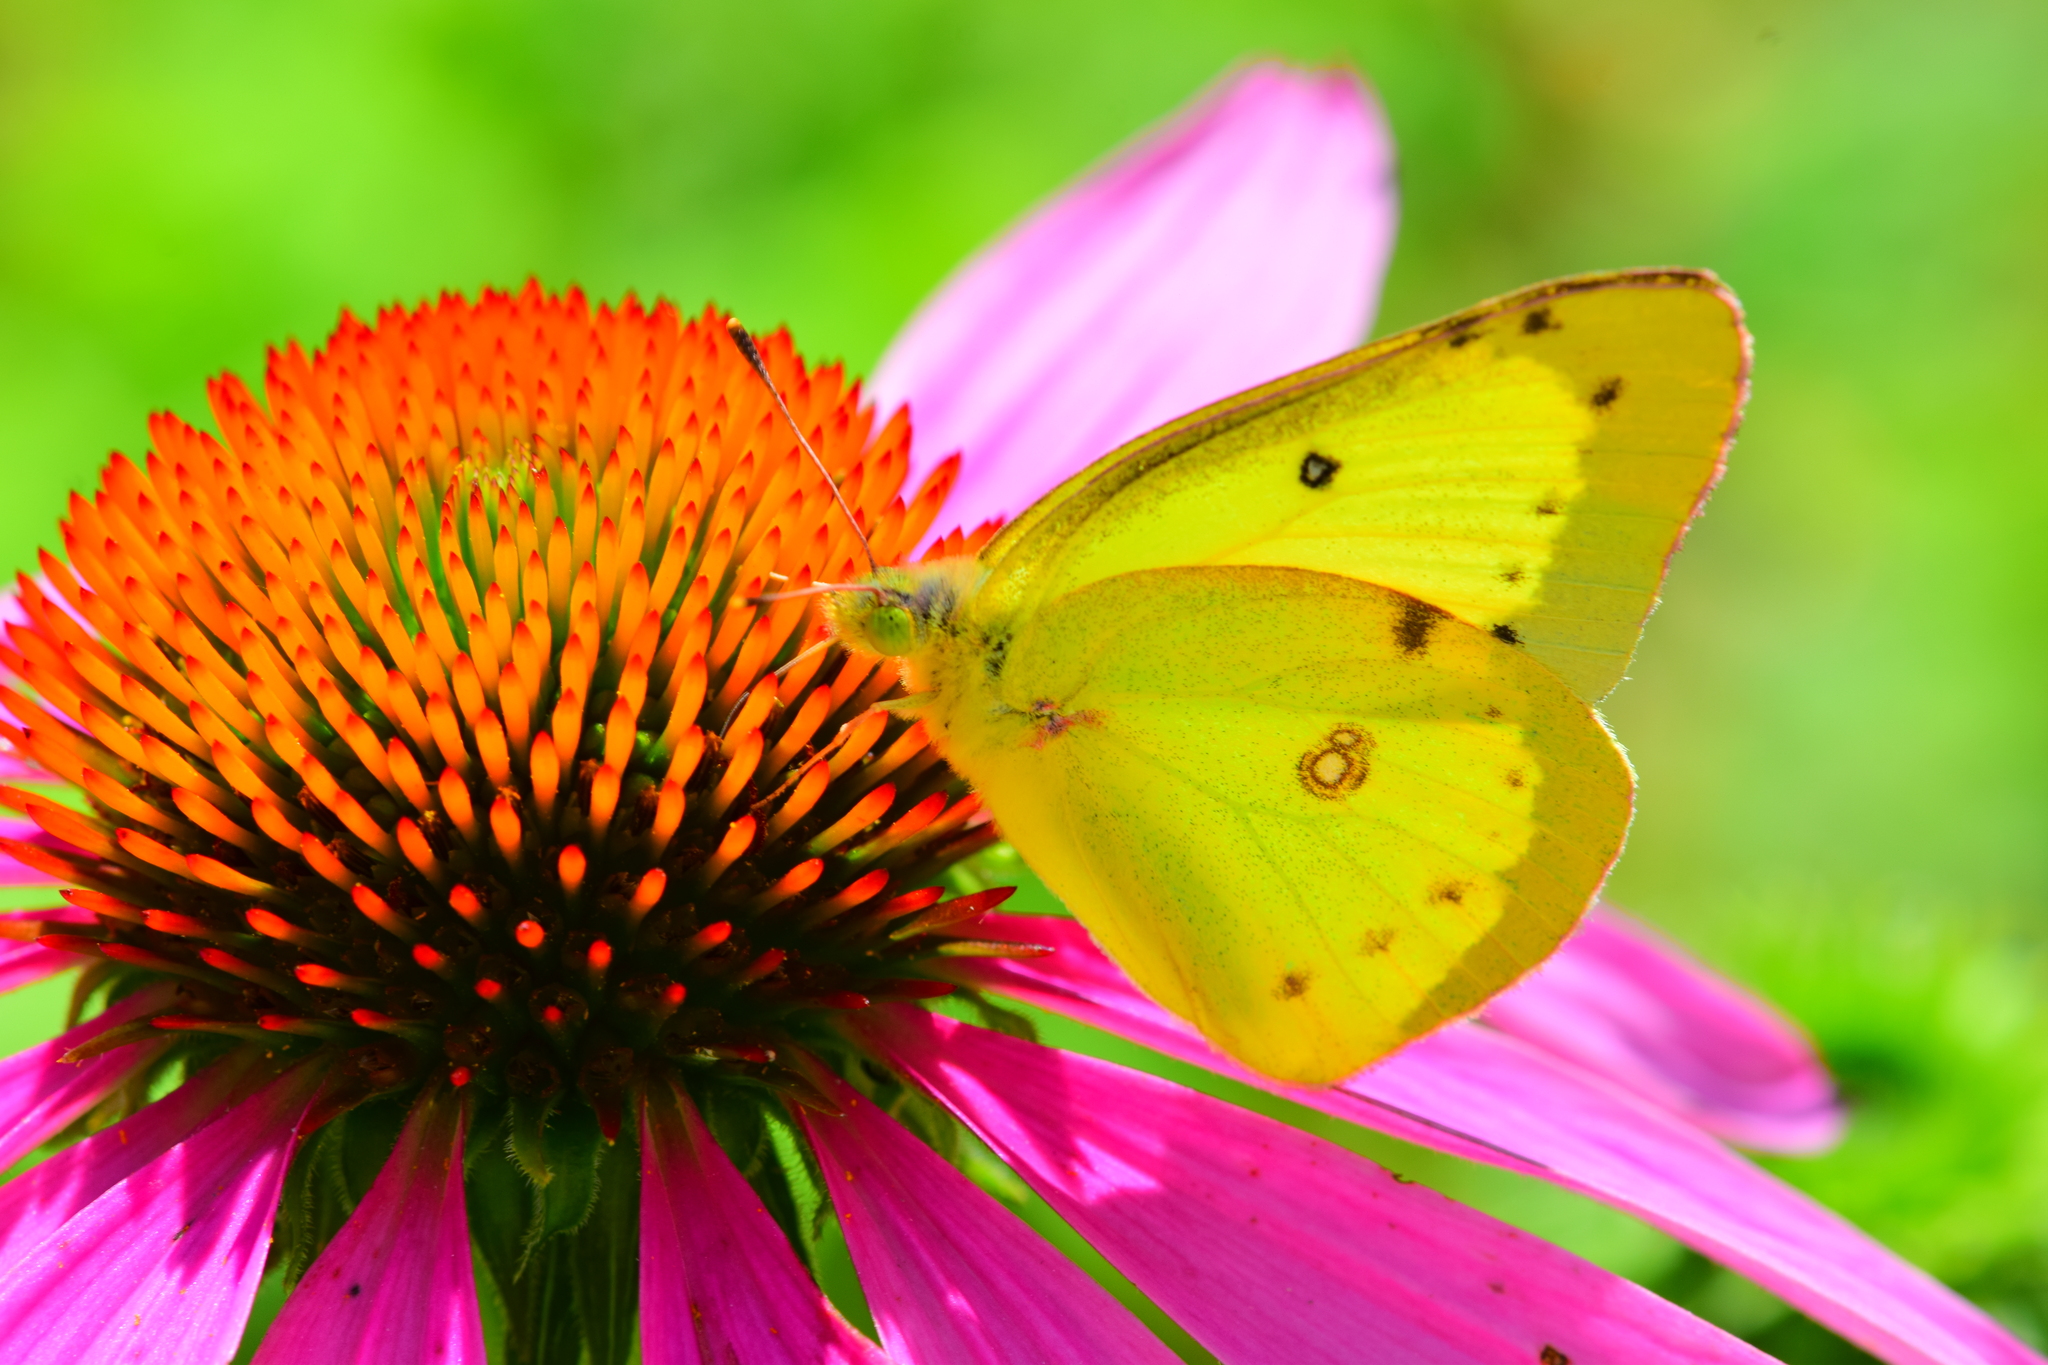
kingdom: Animalia
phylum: Arthropoda
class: Insecta
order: Lepidoptera
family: Pieridae
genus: Colias
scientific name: Colias philodice
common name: Clouded sulphur
